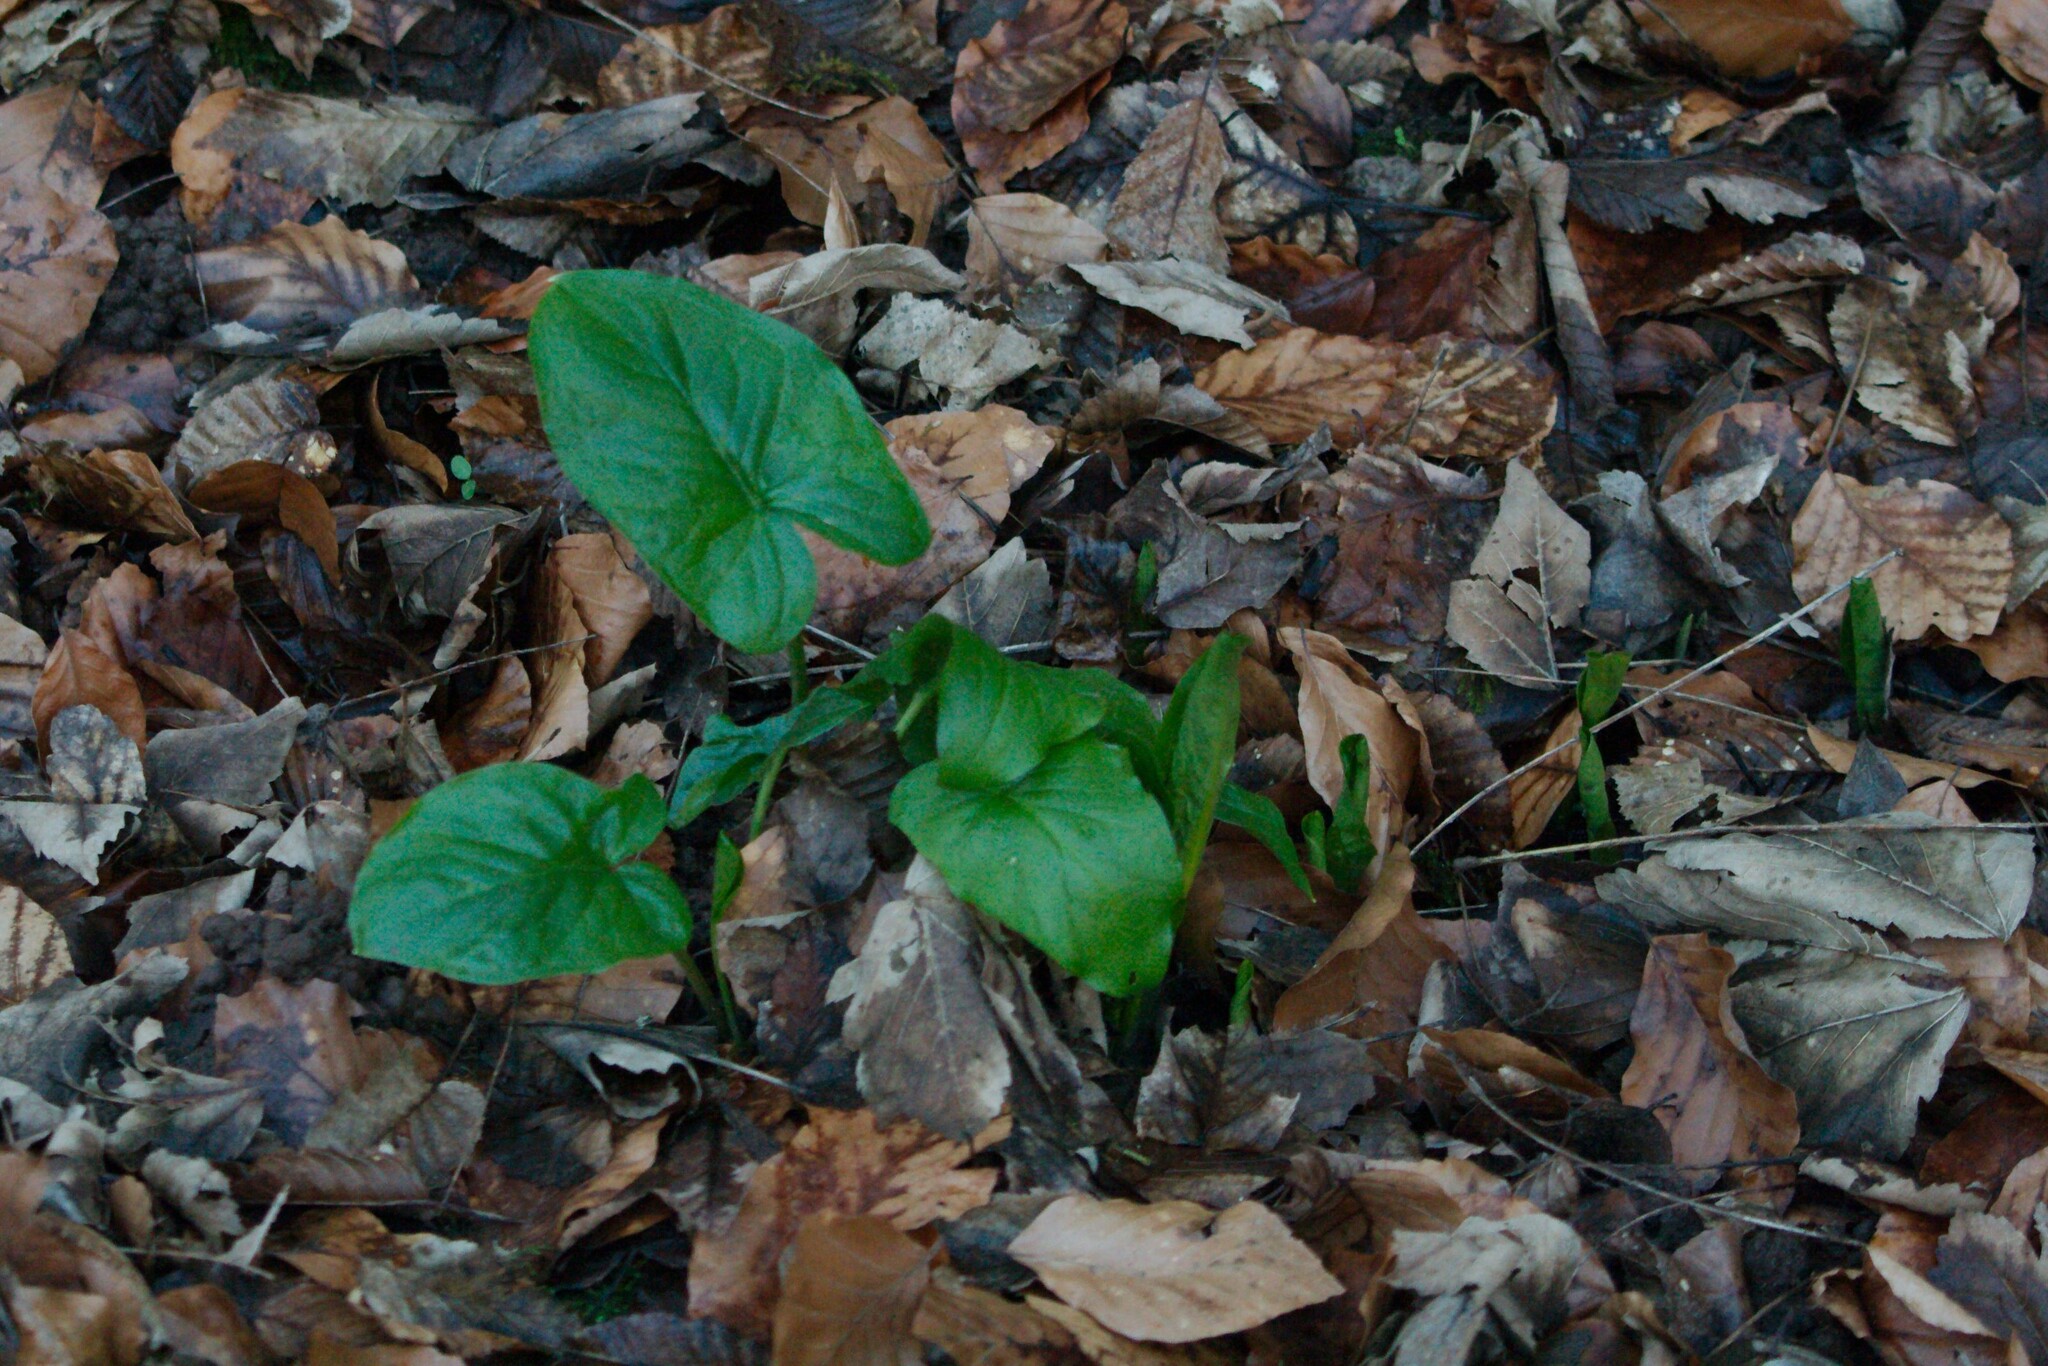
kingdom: Plantae
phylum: Tracheophyta
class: Liliopsida
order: Alismatales
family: Araceae
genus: Arum
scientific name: Arum maculatum
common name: Lords-and-ladies
